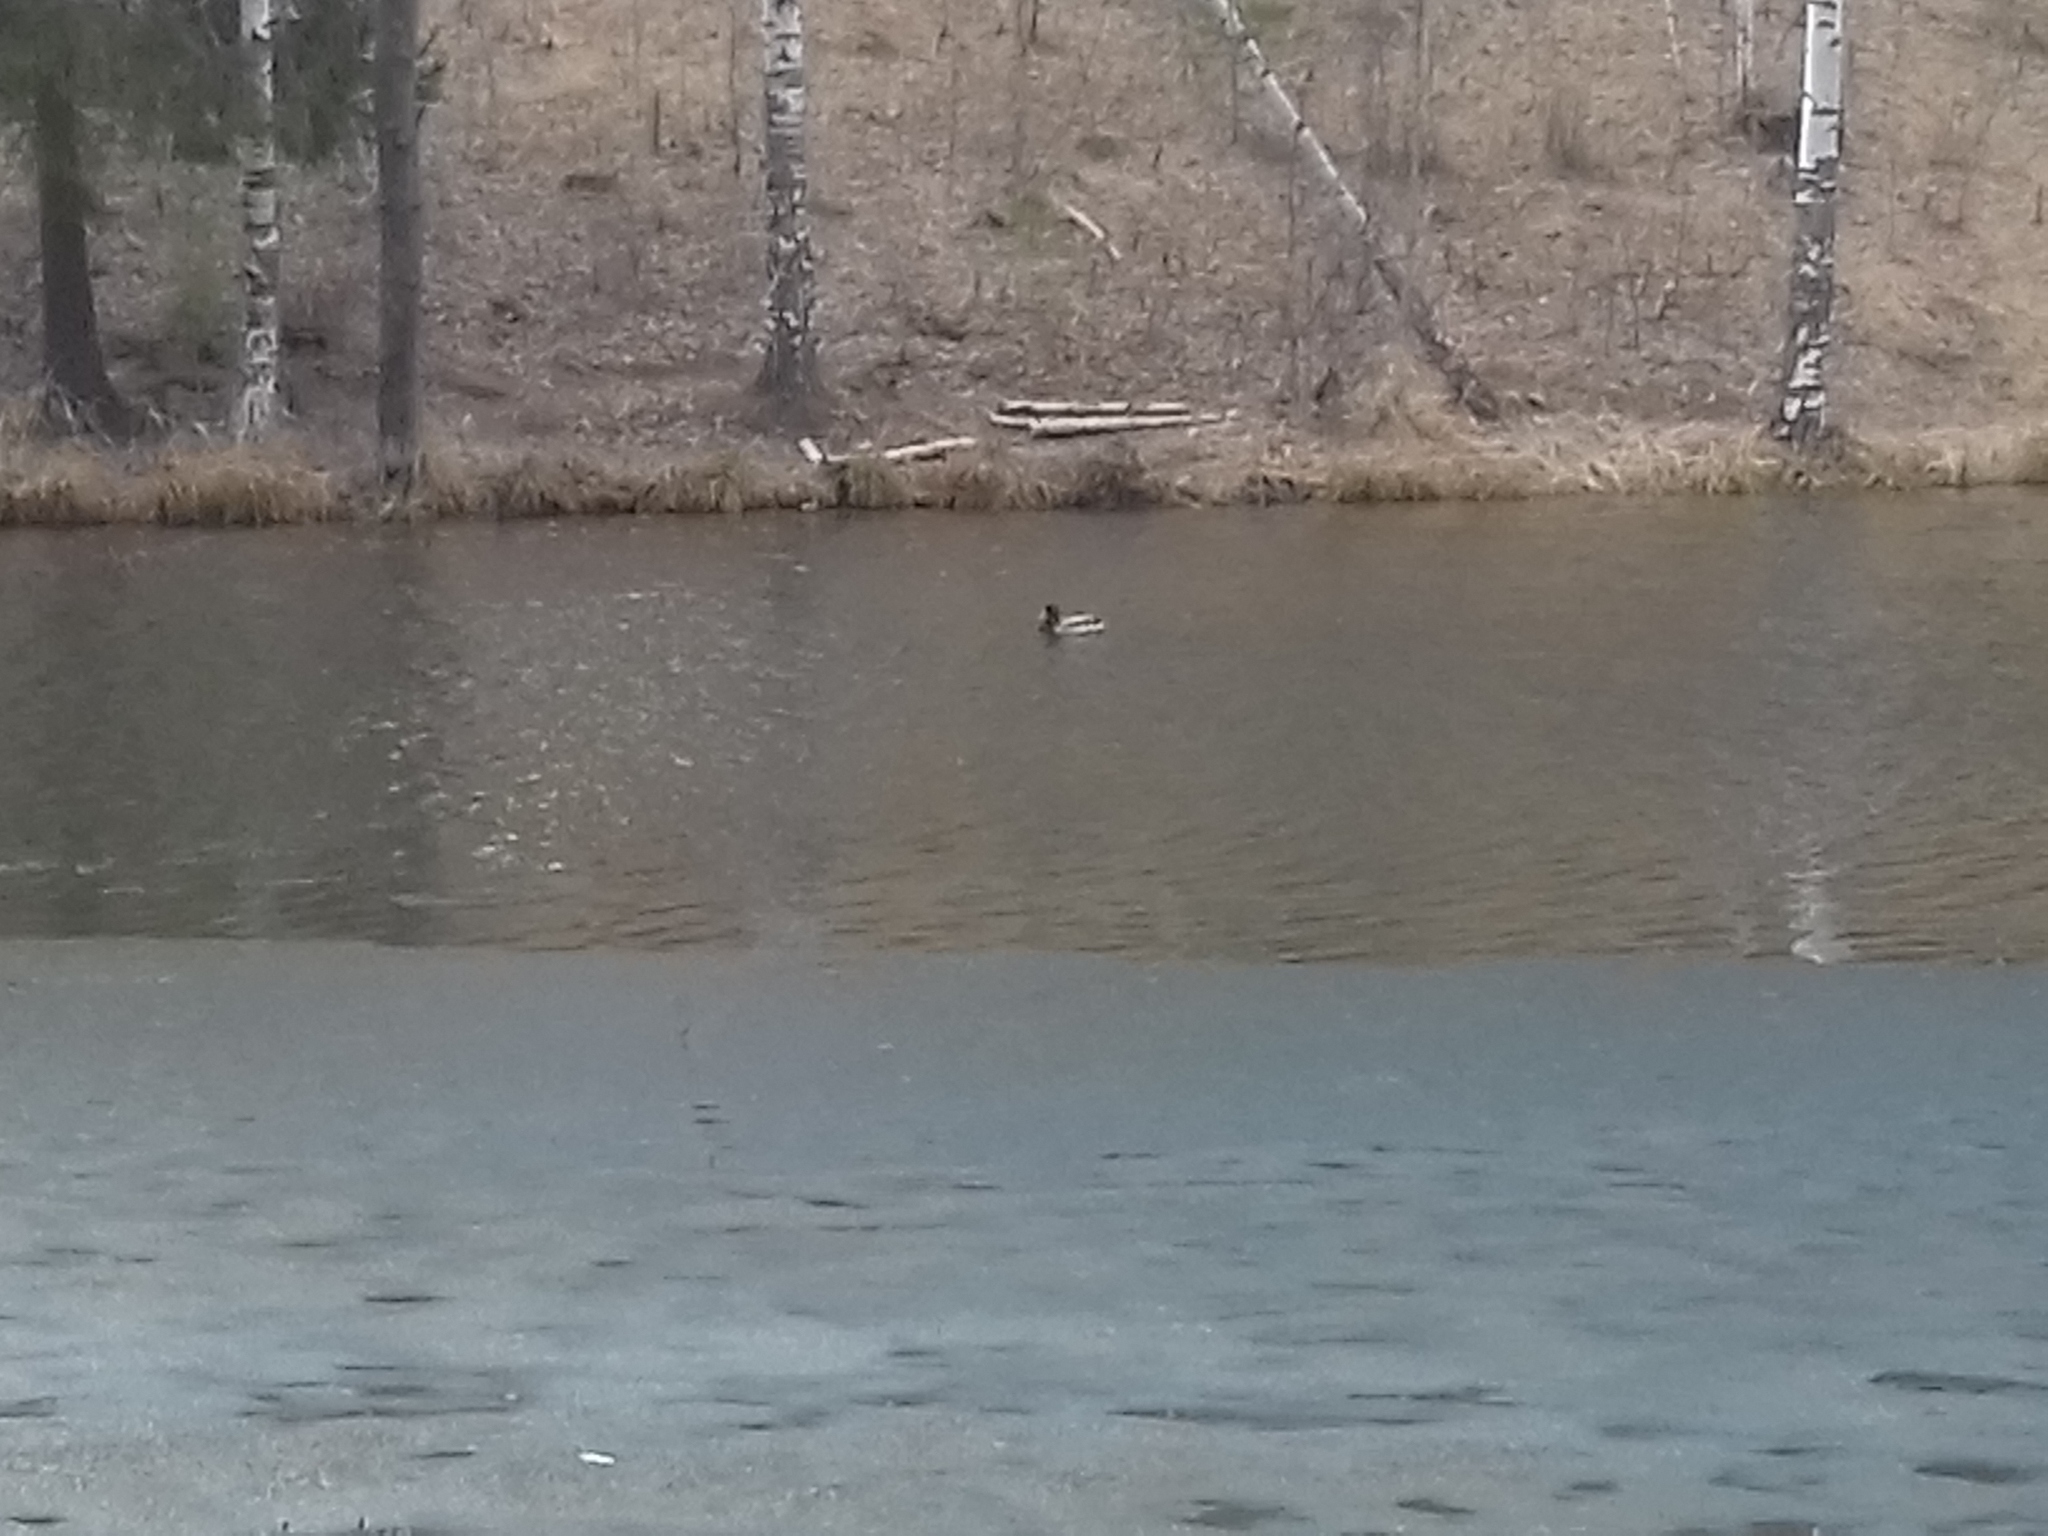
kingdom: Animalia
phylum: Chordata
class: Aves
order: Anseriformes
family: Anatidae
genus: Anas
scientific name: Anas platyrhynchos
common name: Mallard
